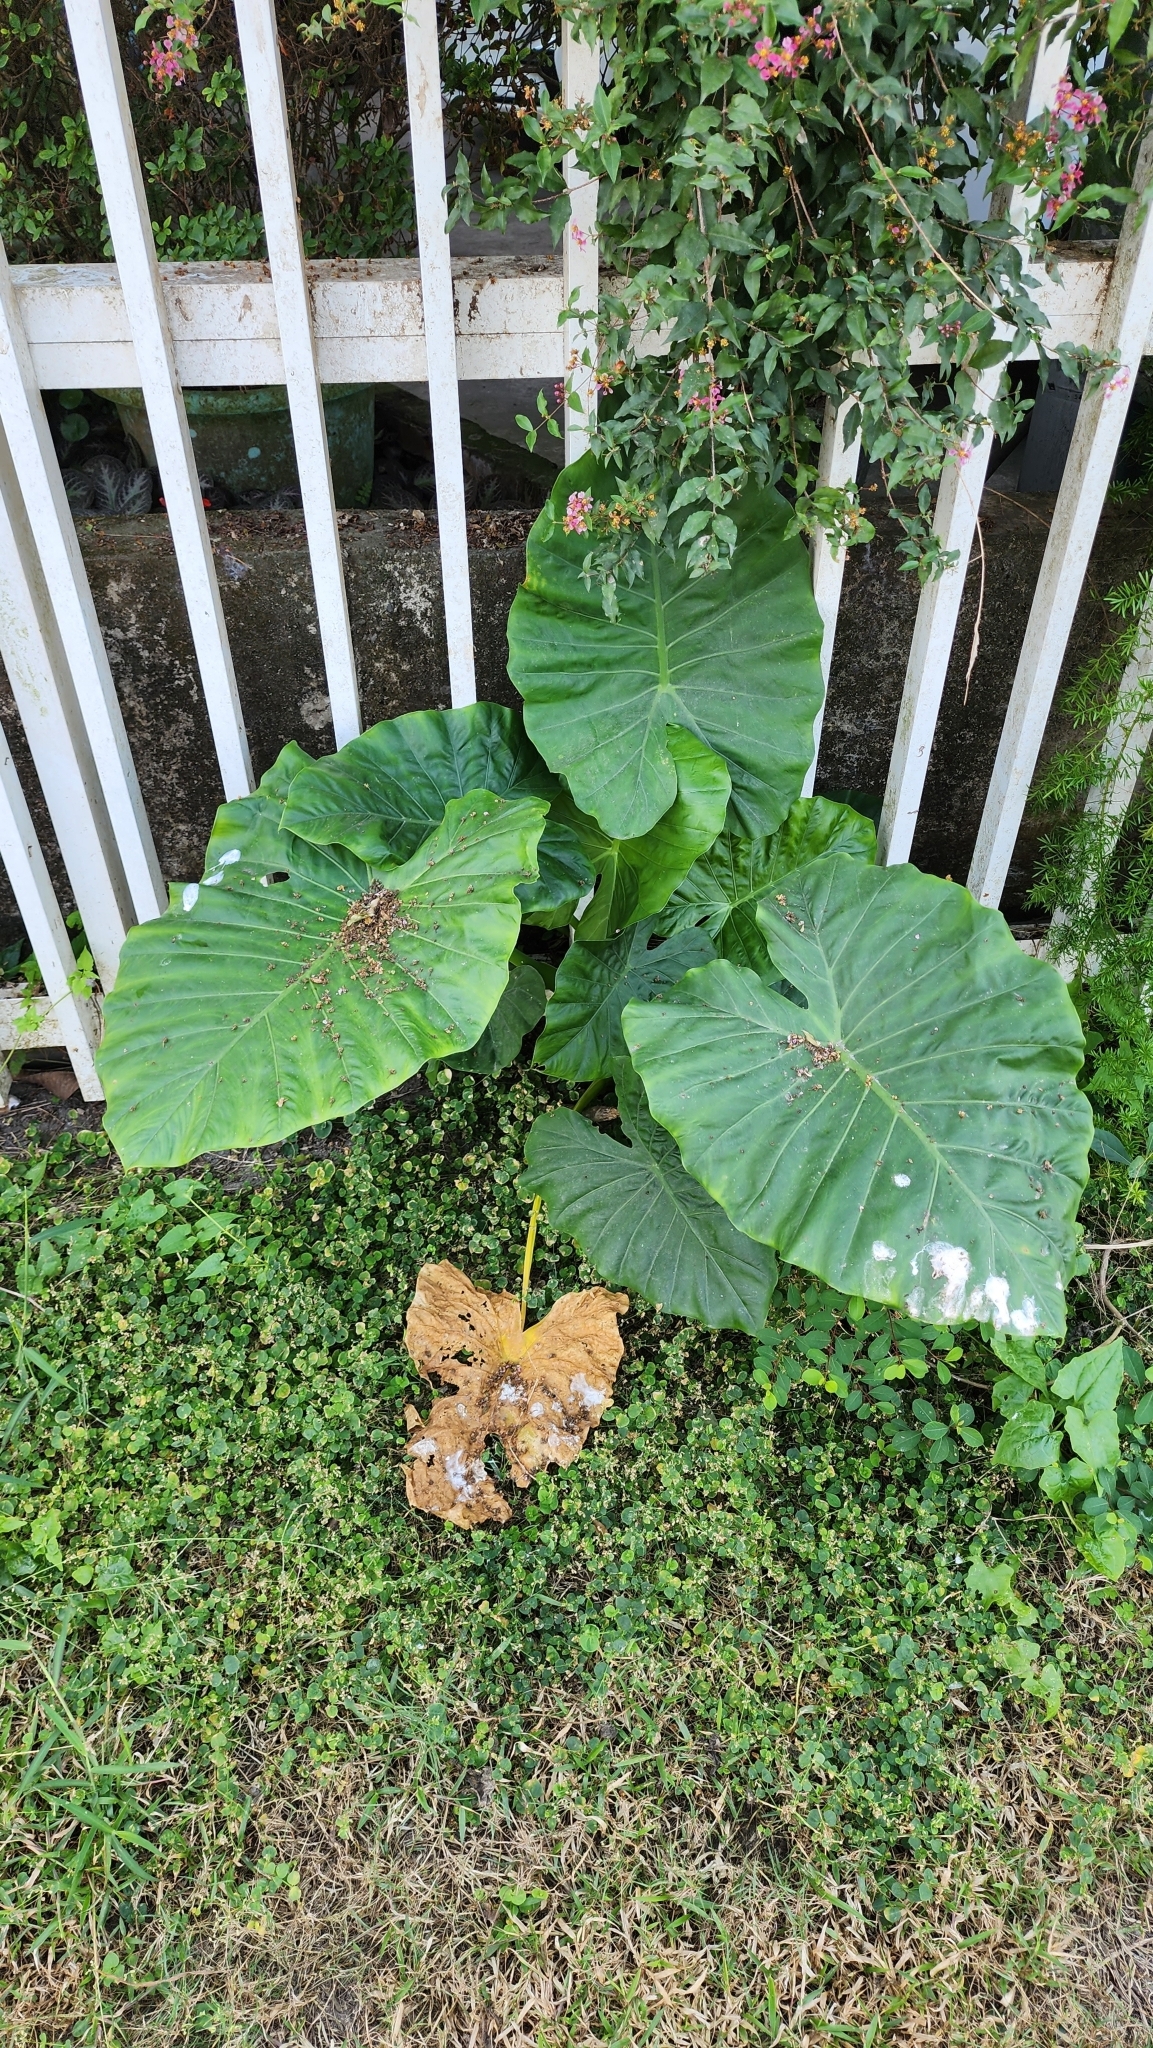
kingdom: Plantae
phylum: Tracheophyta
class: Liliopsida
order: Alismatales
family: Araceae
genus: Alocasia
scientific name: Alocasia odora
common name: Asian taro
